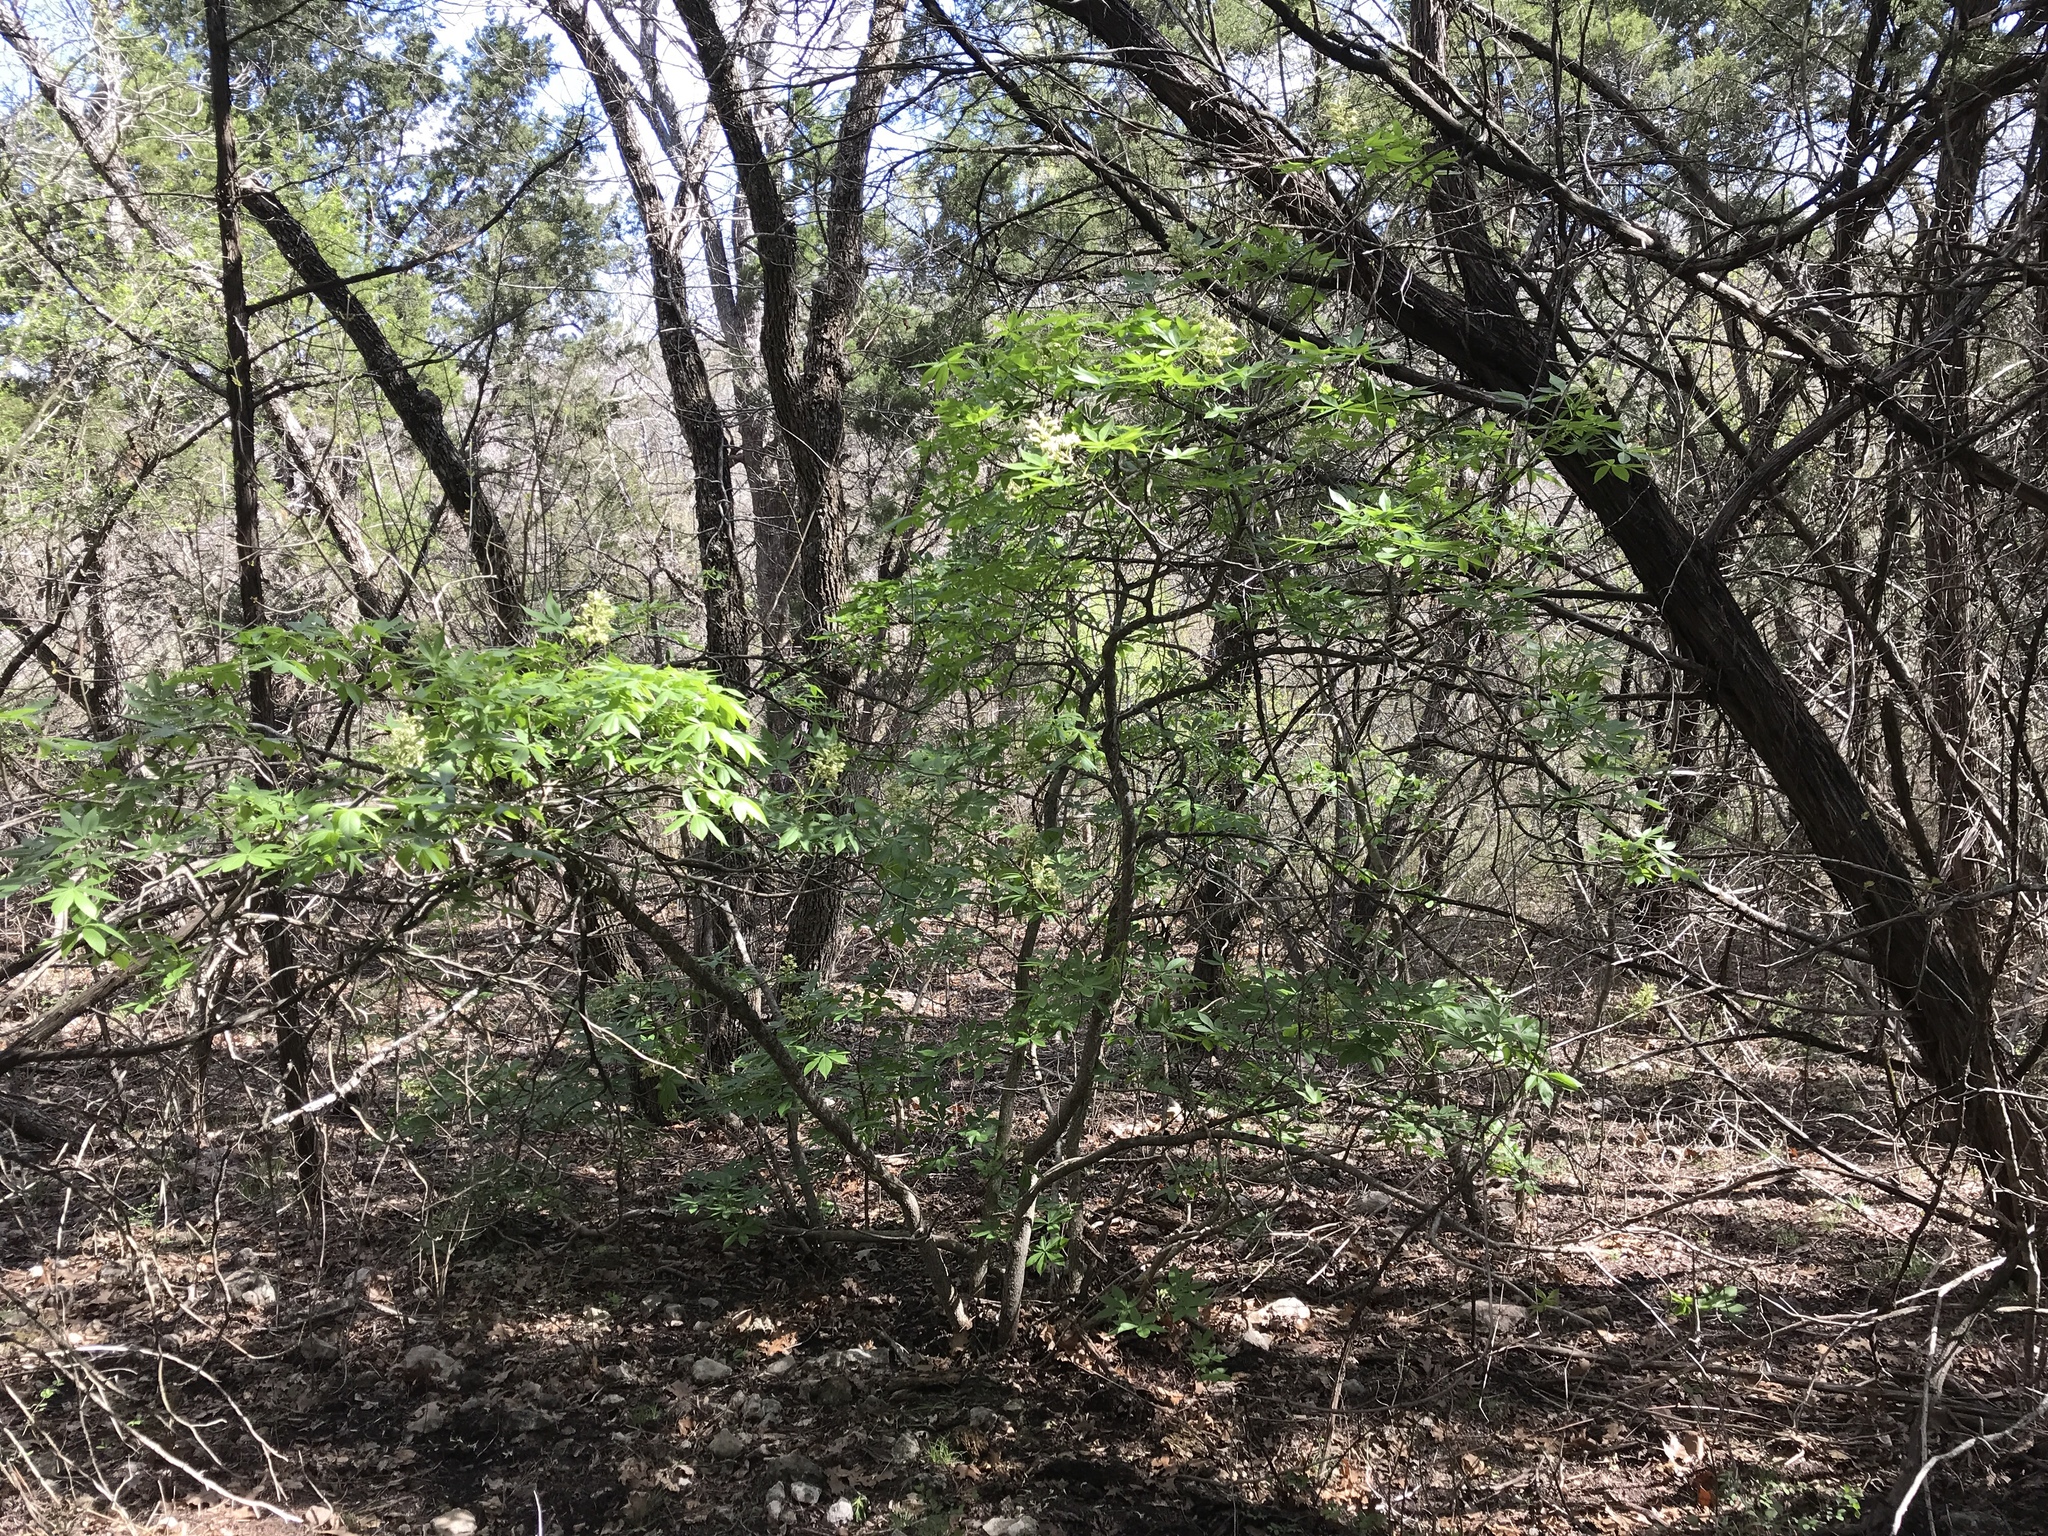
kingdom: Plantae
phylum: Tracheophyta
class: Magnoliopsida
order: Sapindales
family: Sapindaceae
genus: Aesculus
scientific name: Aesculus glabra
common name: Ohio buckeye
